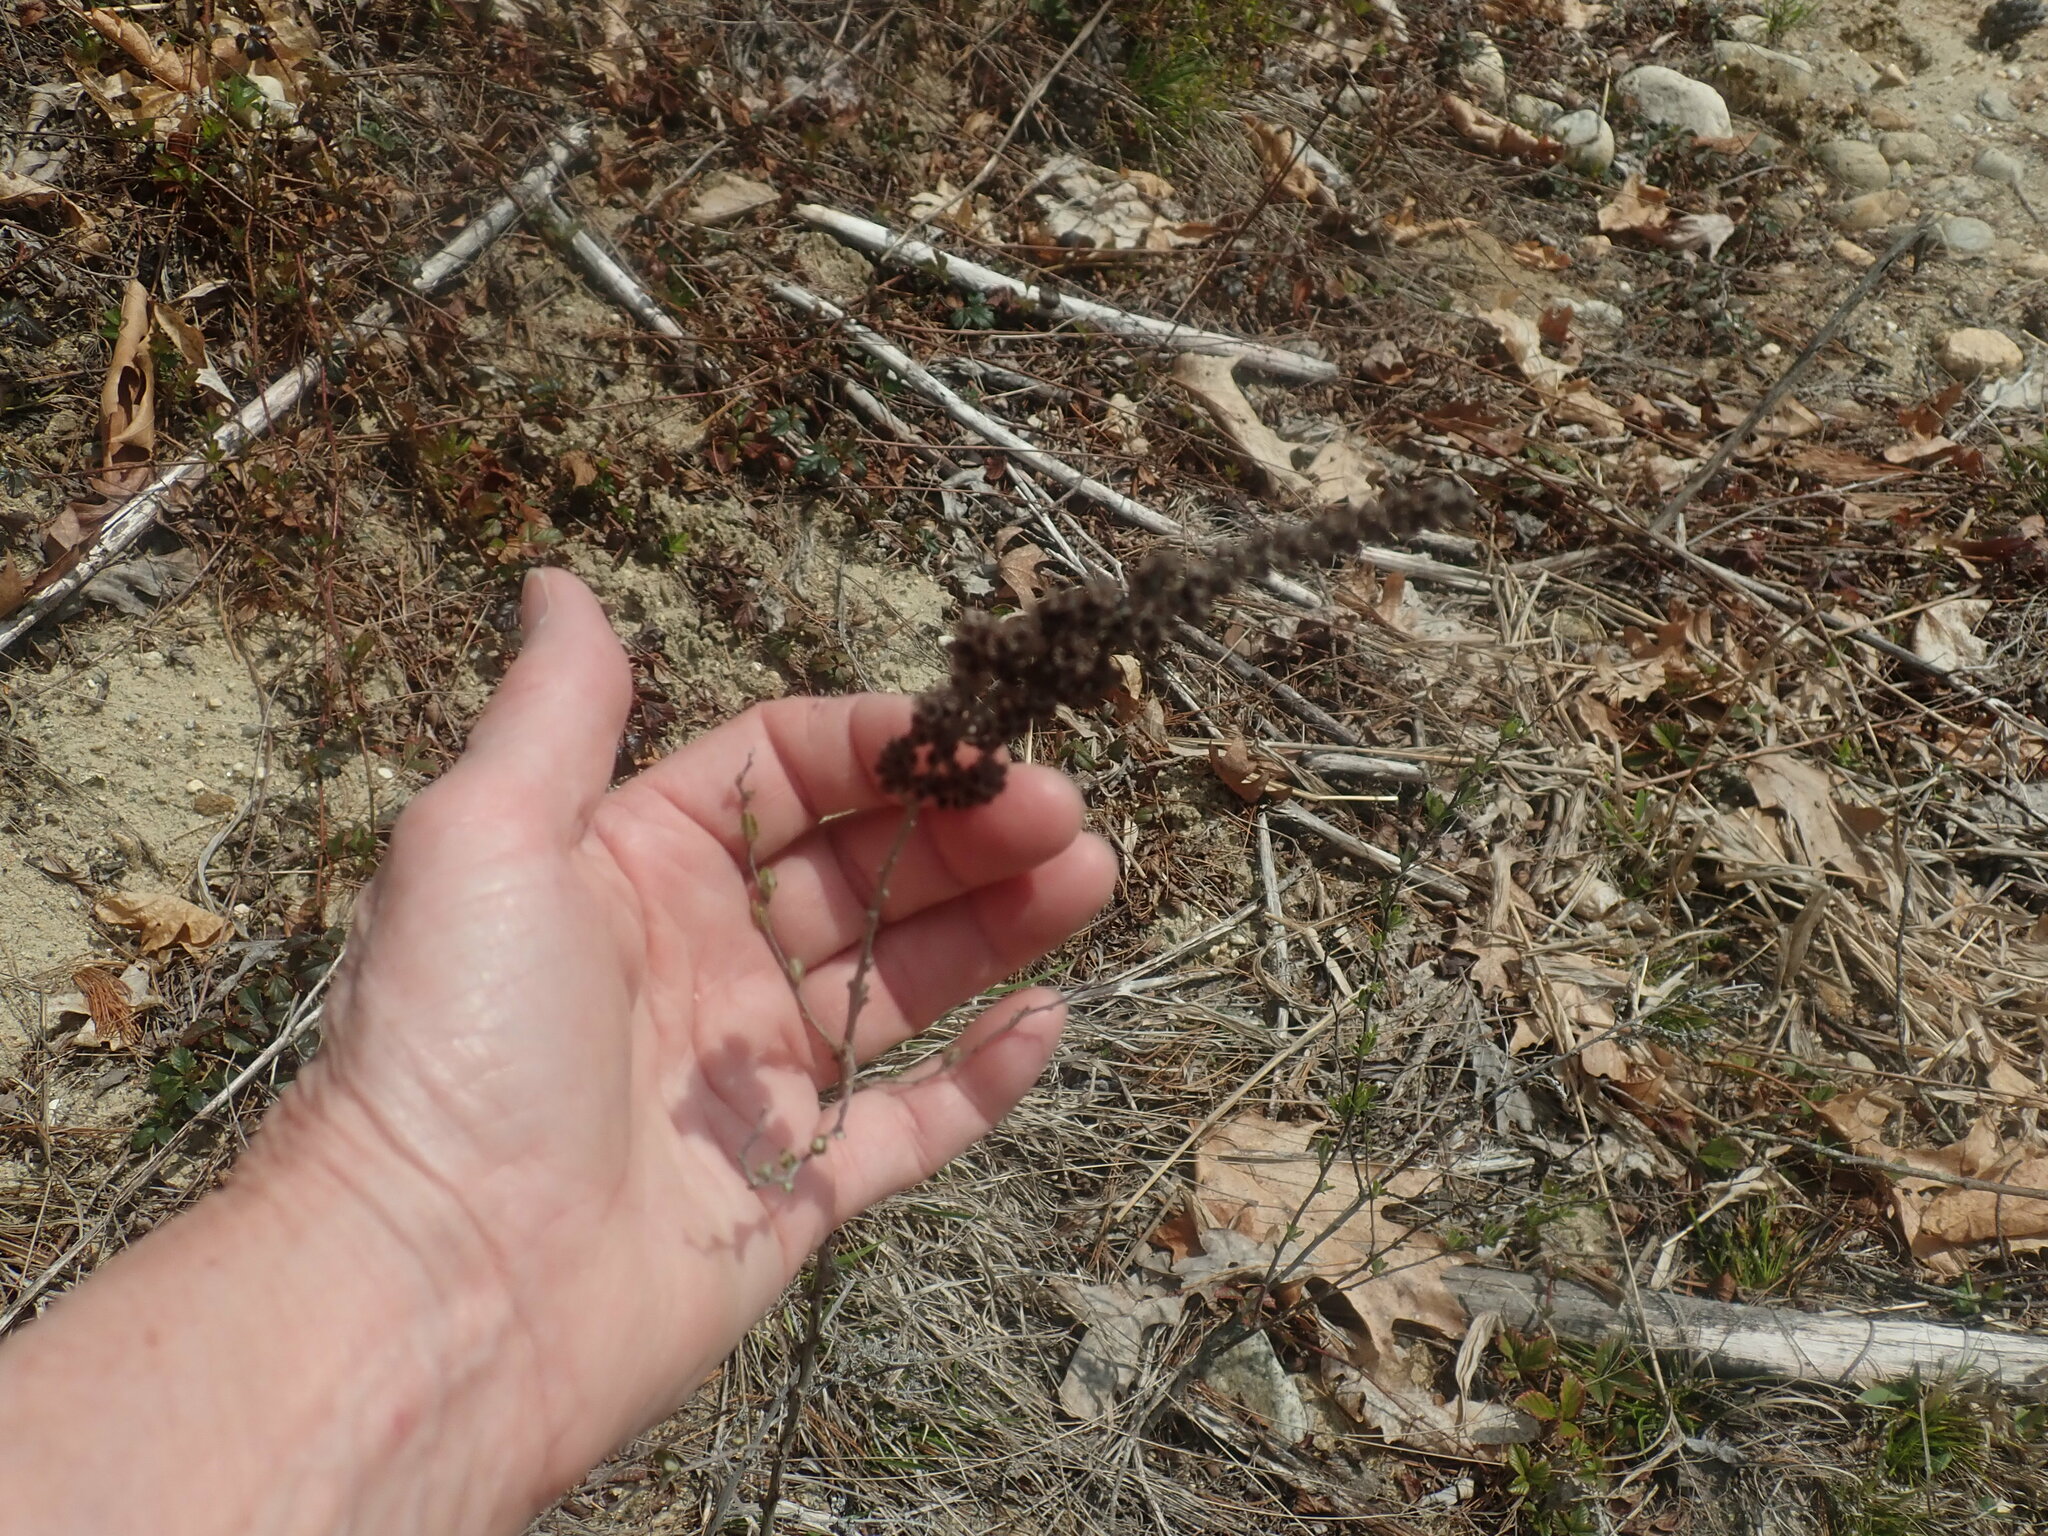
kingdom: Plantae
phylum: Tracheophyta
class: Magnoliopsida
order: Rosales
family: Rosaceae
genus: Spiraea
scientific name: Spiraea tomentosa
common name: Hardhack
